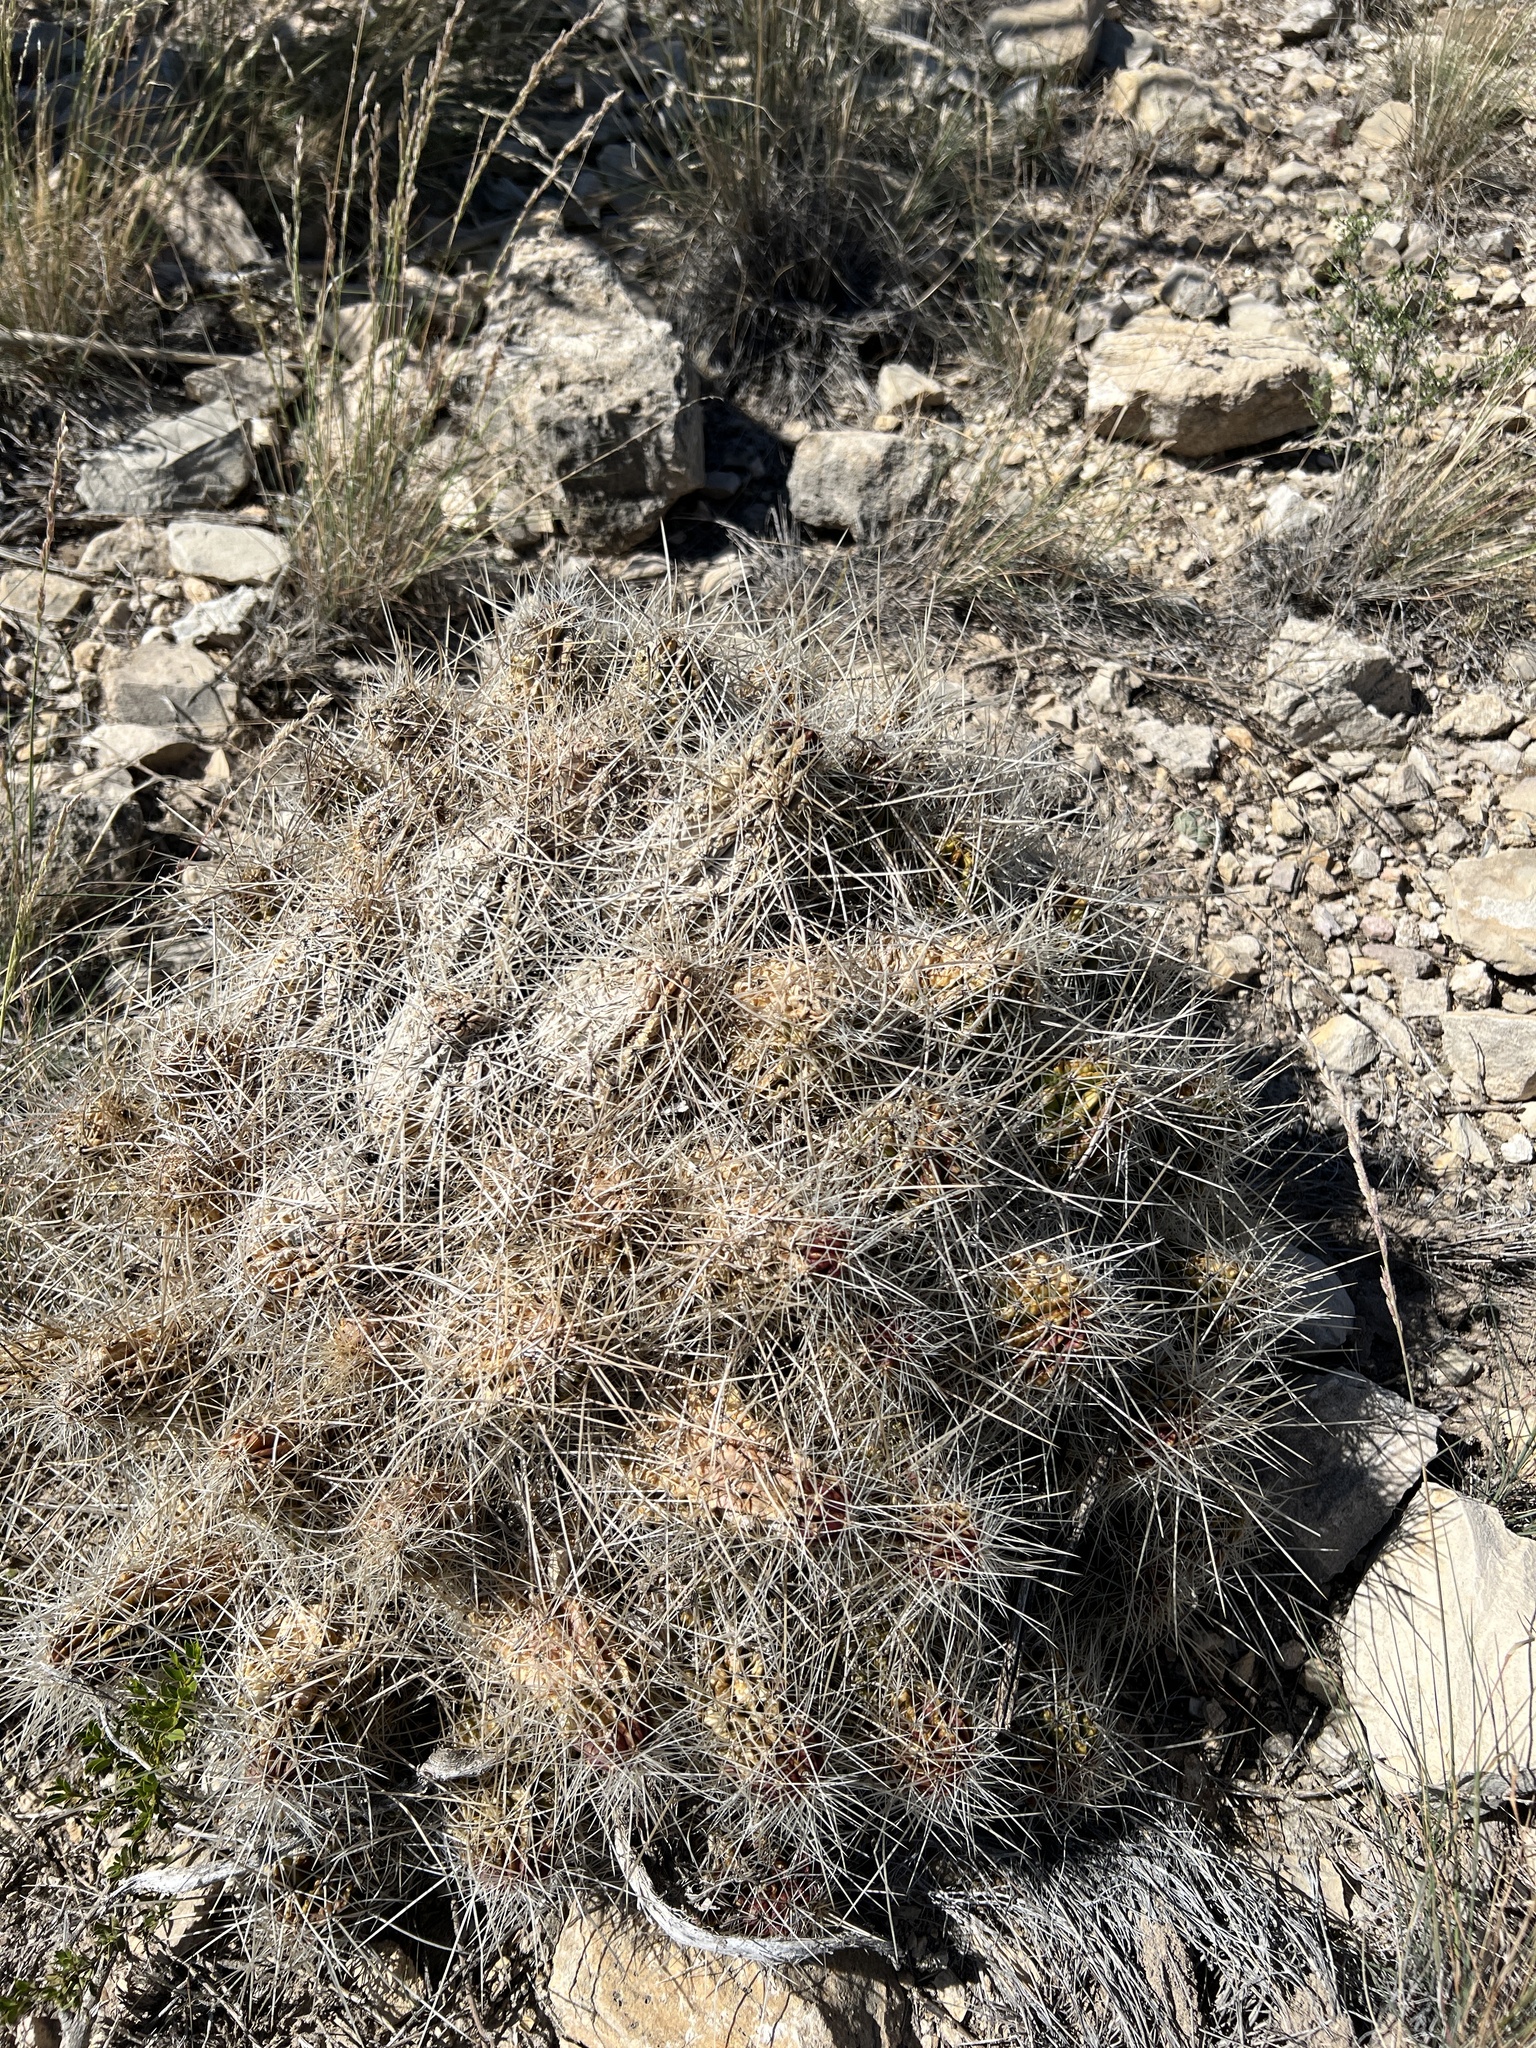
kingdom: Plantae
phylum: Tracheophyta
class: Magnoliopsida
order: Caryophyllales
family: Cactaceae
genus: Echinocereus
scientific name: Echinocereus stramineus
